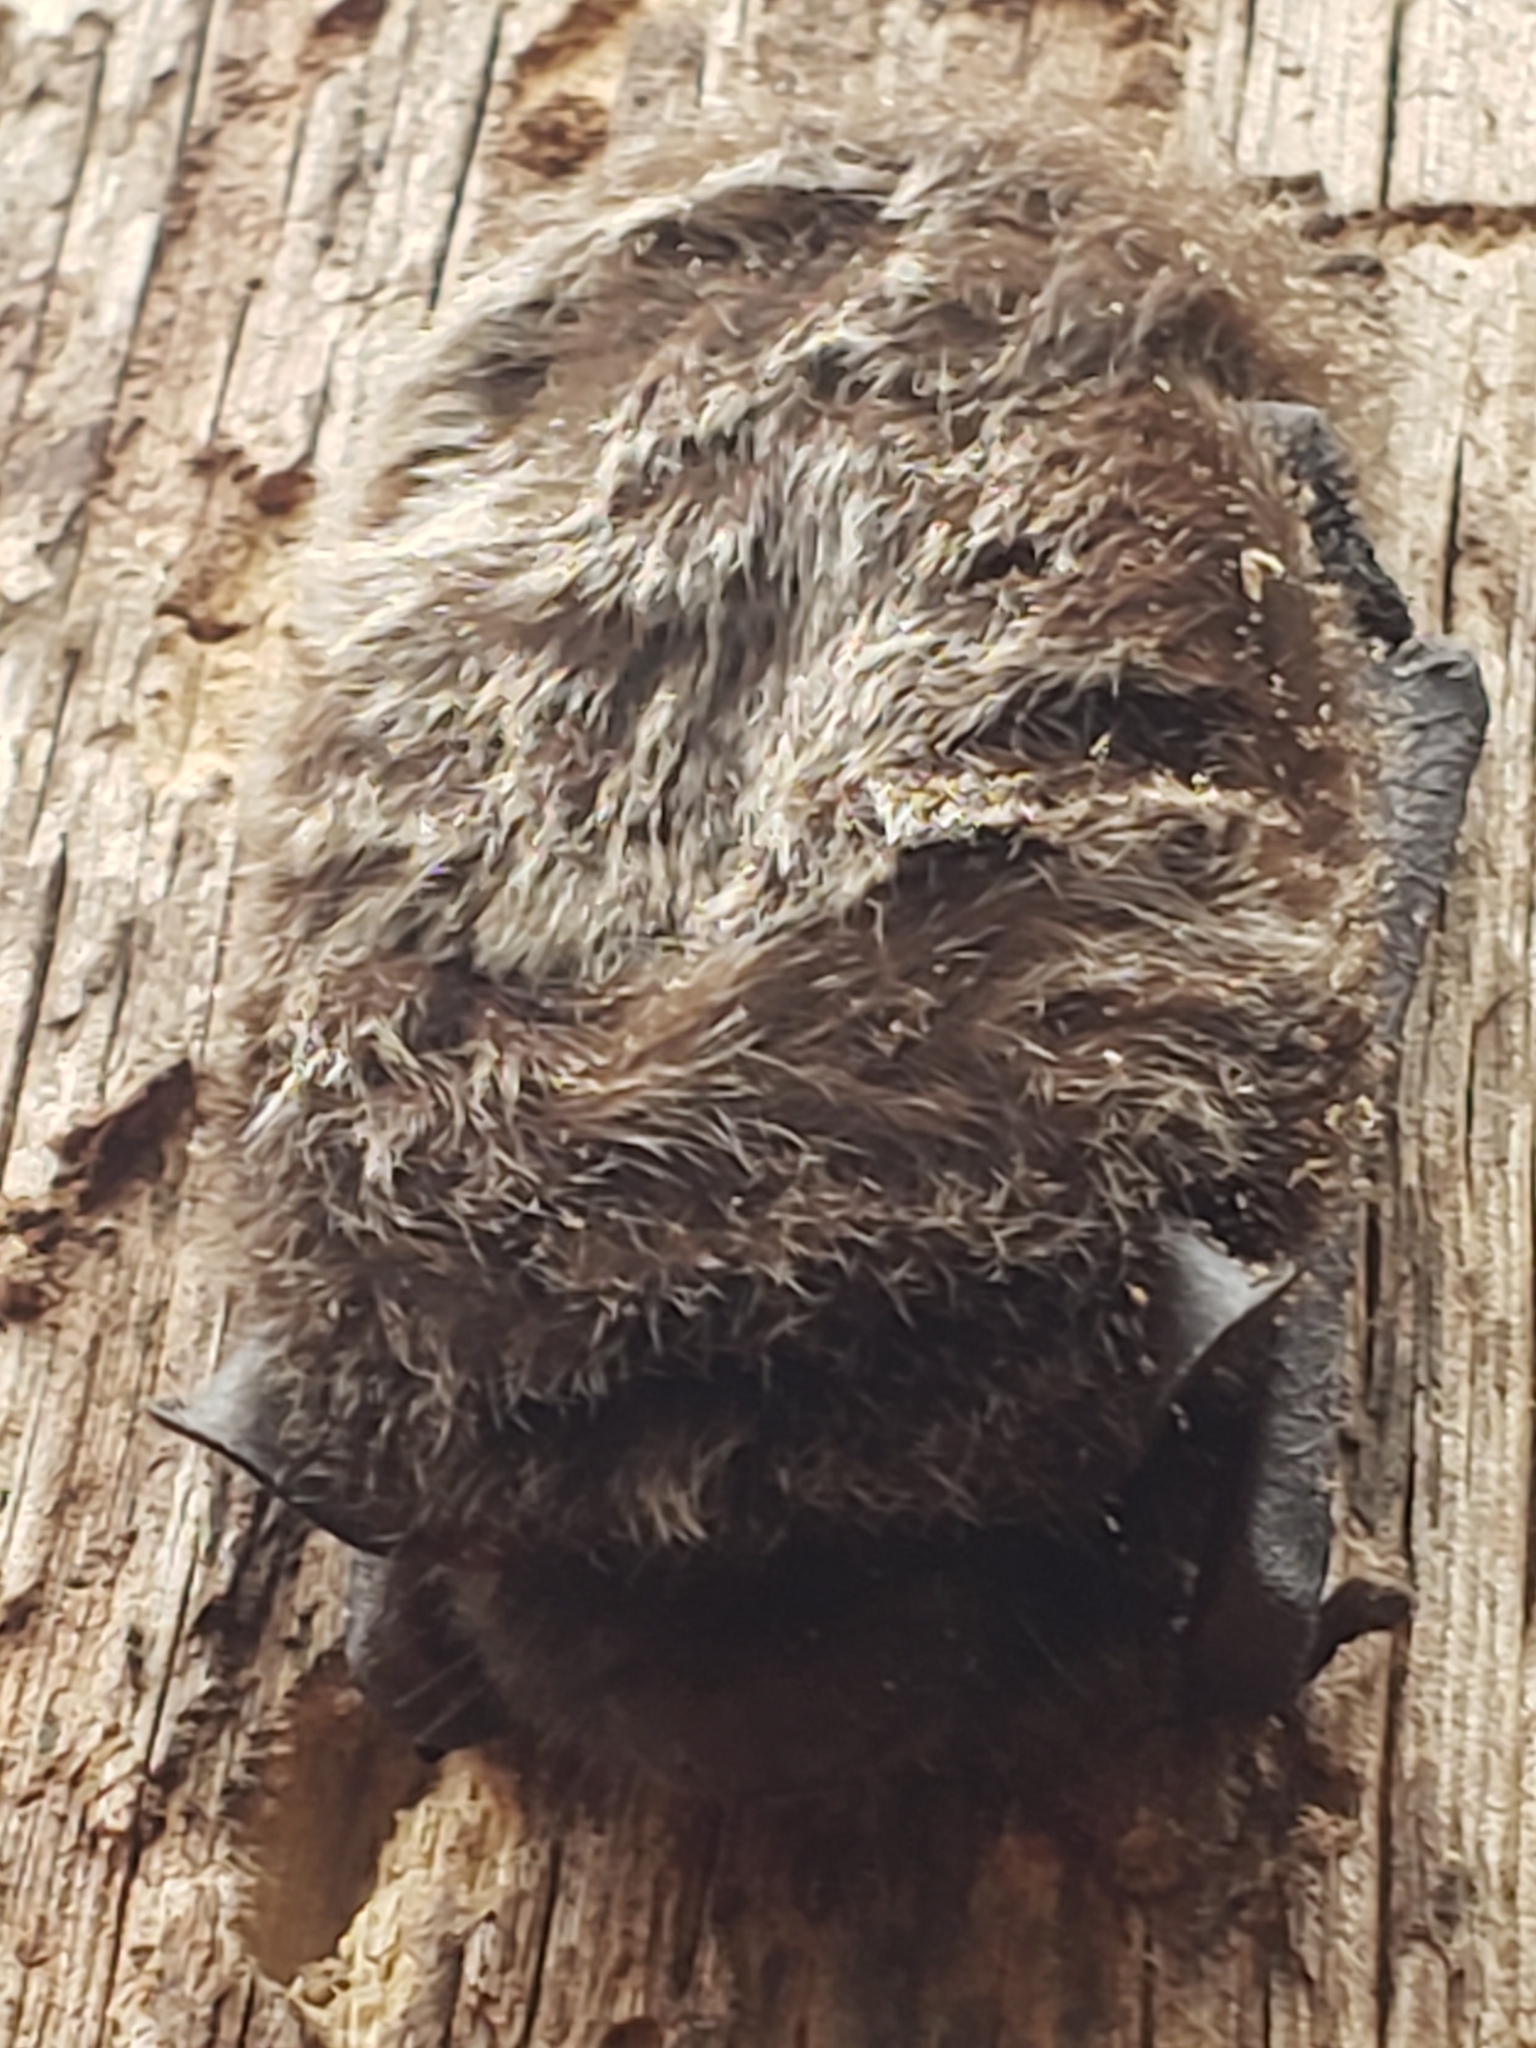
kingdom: Animalia
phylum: Chordata
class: Mammalia
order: Chiroptera
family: Vespertilionidae
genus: Lasionycteris
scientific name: Lasionycteris noctivagans
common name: Silver-haired bat
